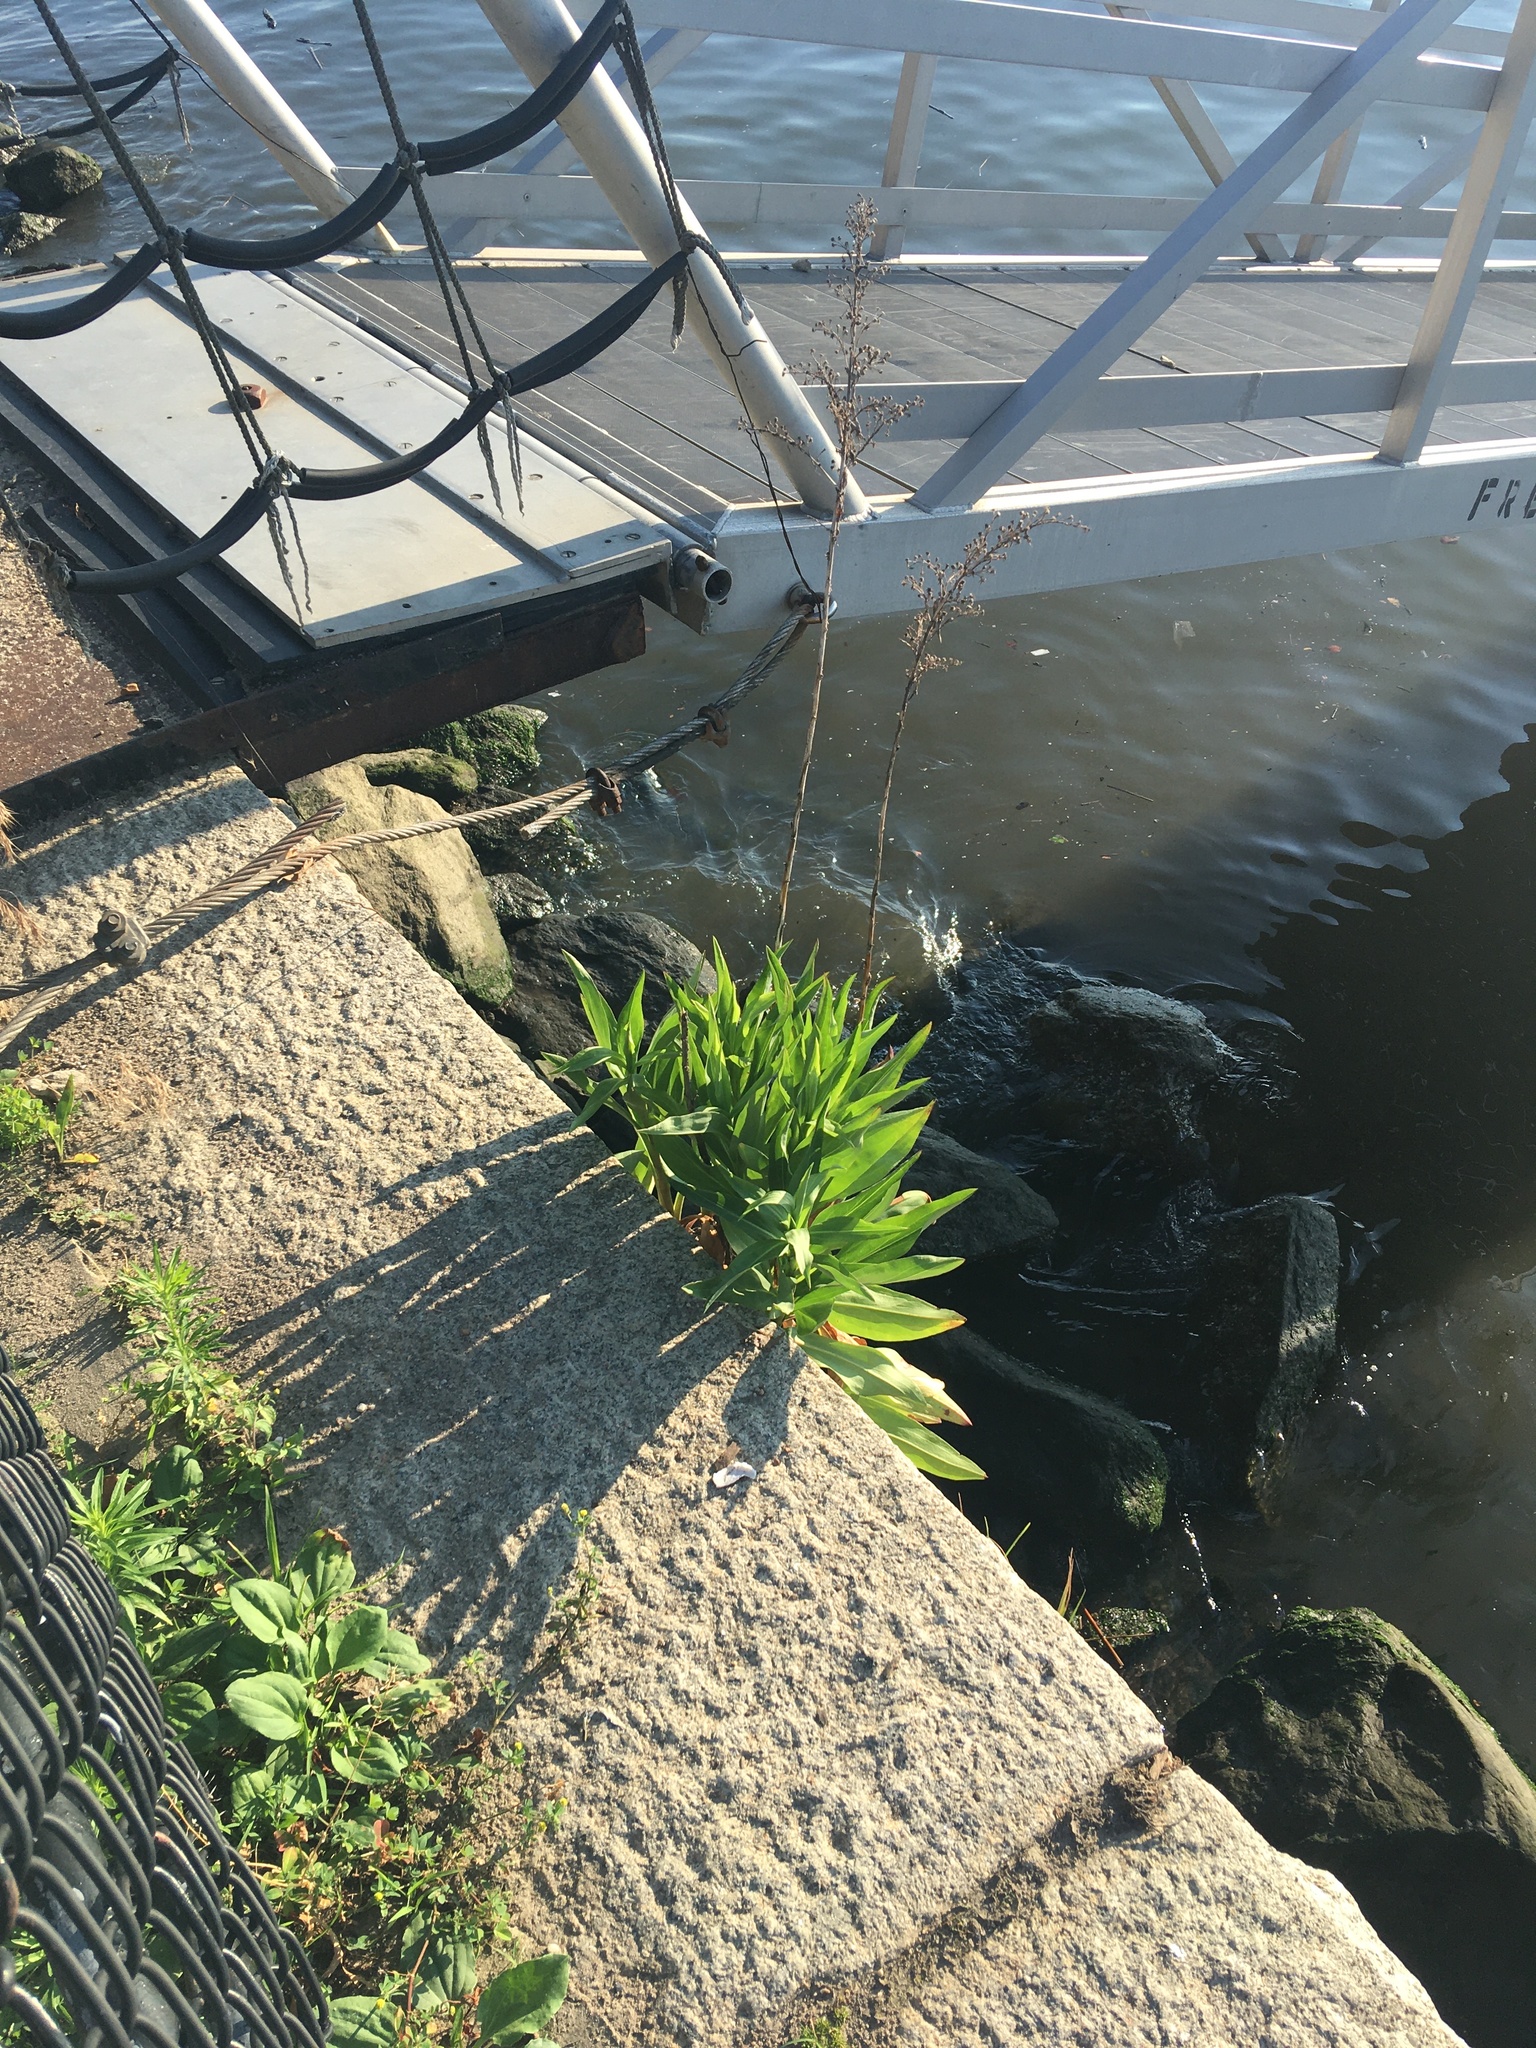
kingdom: Plantae
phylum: Tracheophyta
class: Magnoliopsida
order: Asterales
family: Asteraceae
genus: Solidago
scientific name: Solidago sempervirens
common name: Salt-marsh goldenrod
